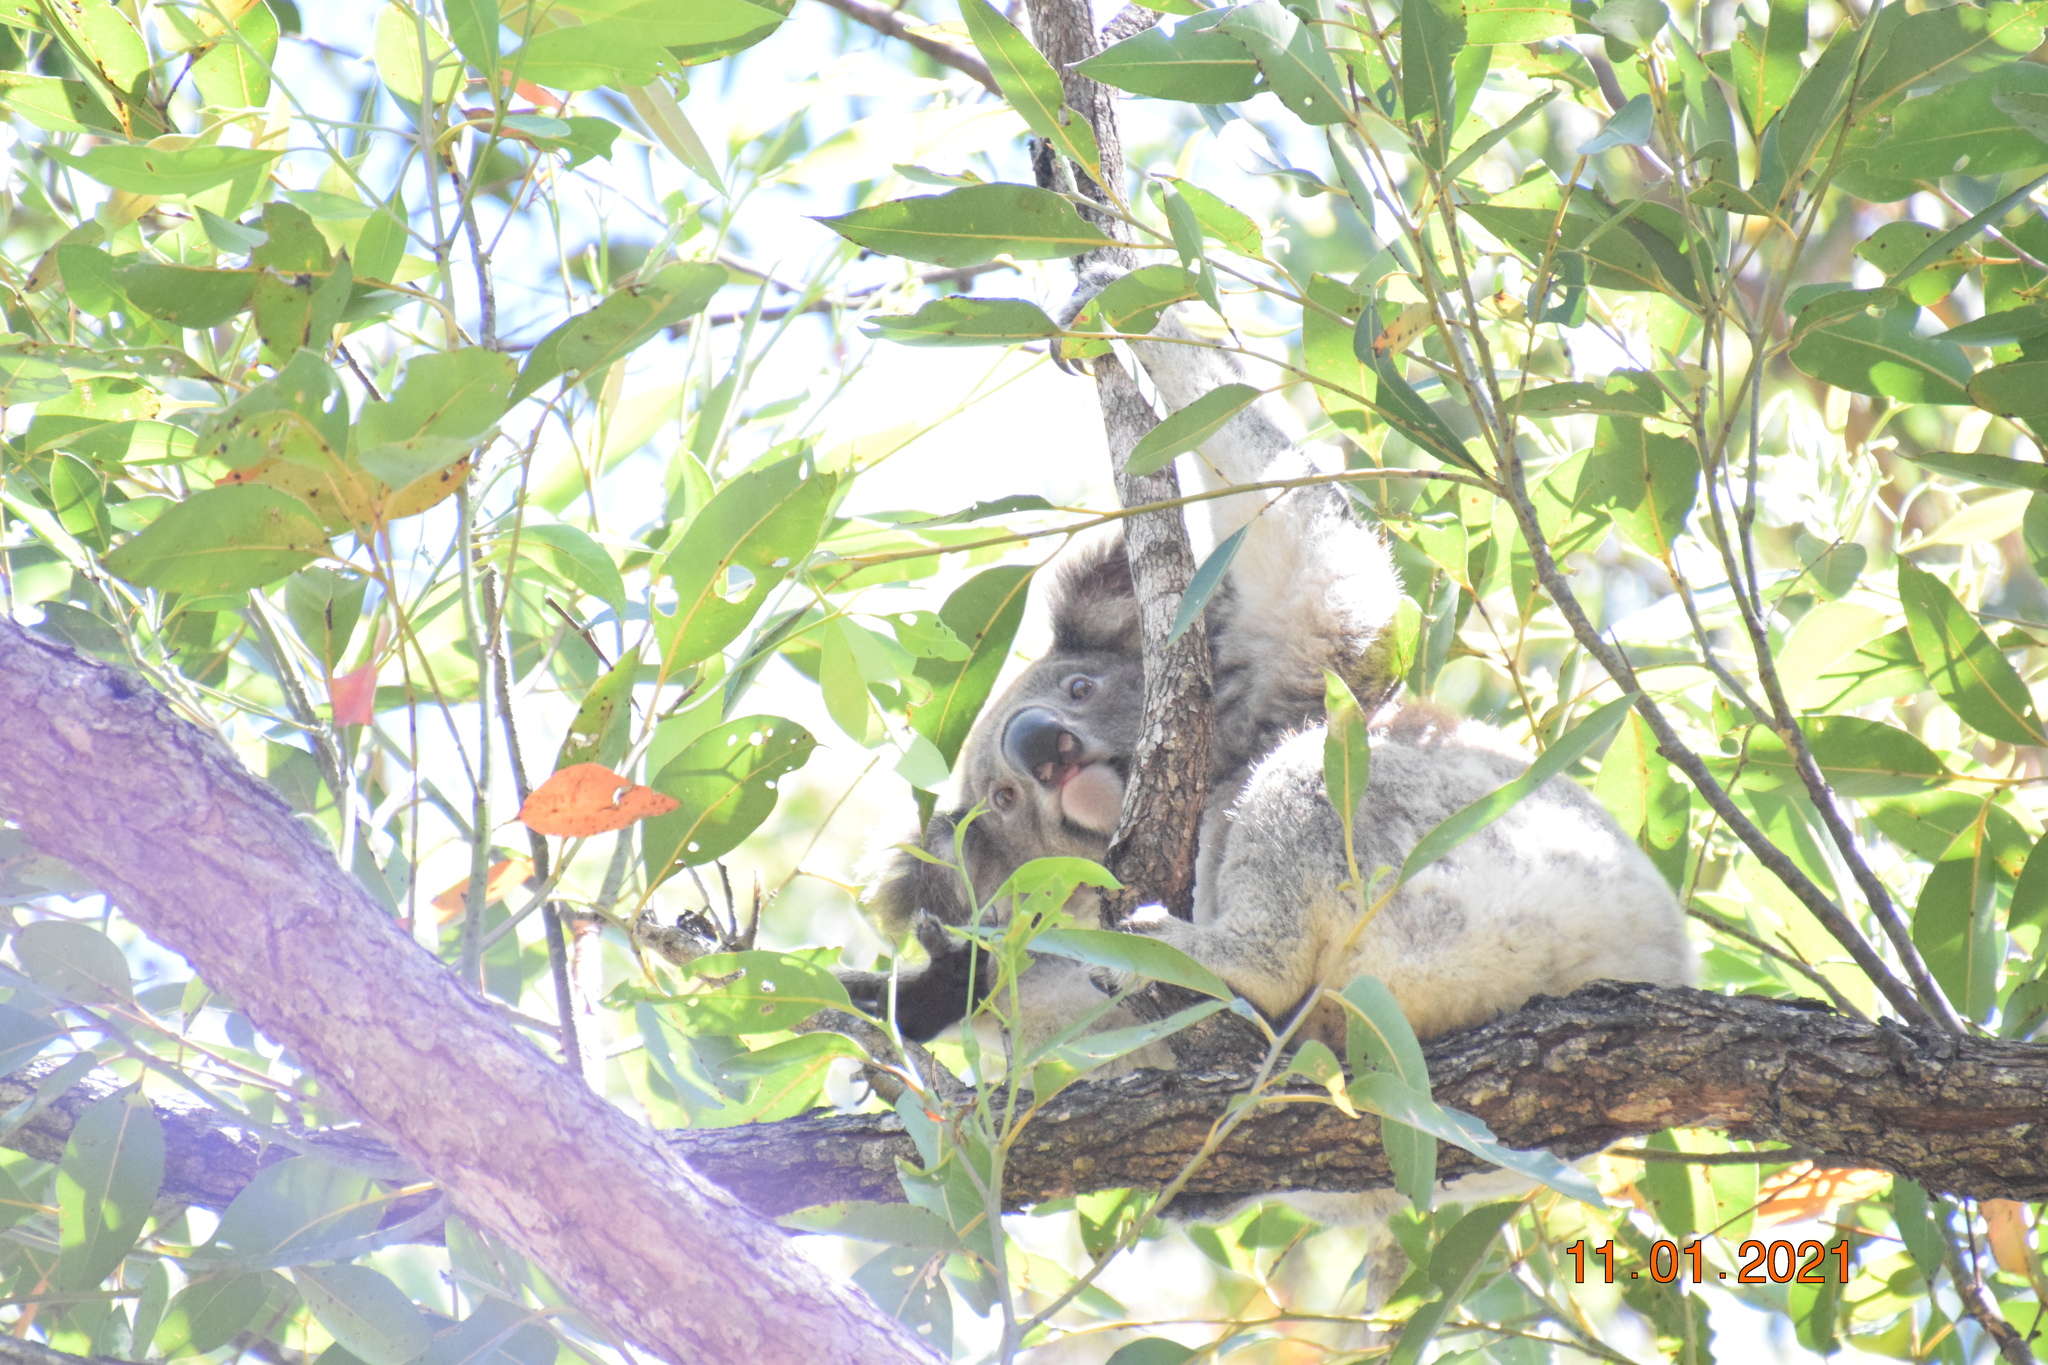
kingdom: Animalia
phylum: Chordata
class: Mammalia
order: Diprotodontia
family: Phascolarctidae
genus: Phascolarctos
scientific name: Phascolarctos cinereus
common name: Koala
